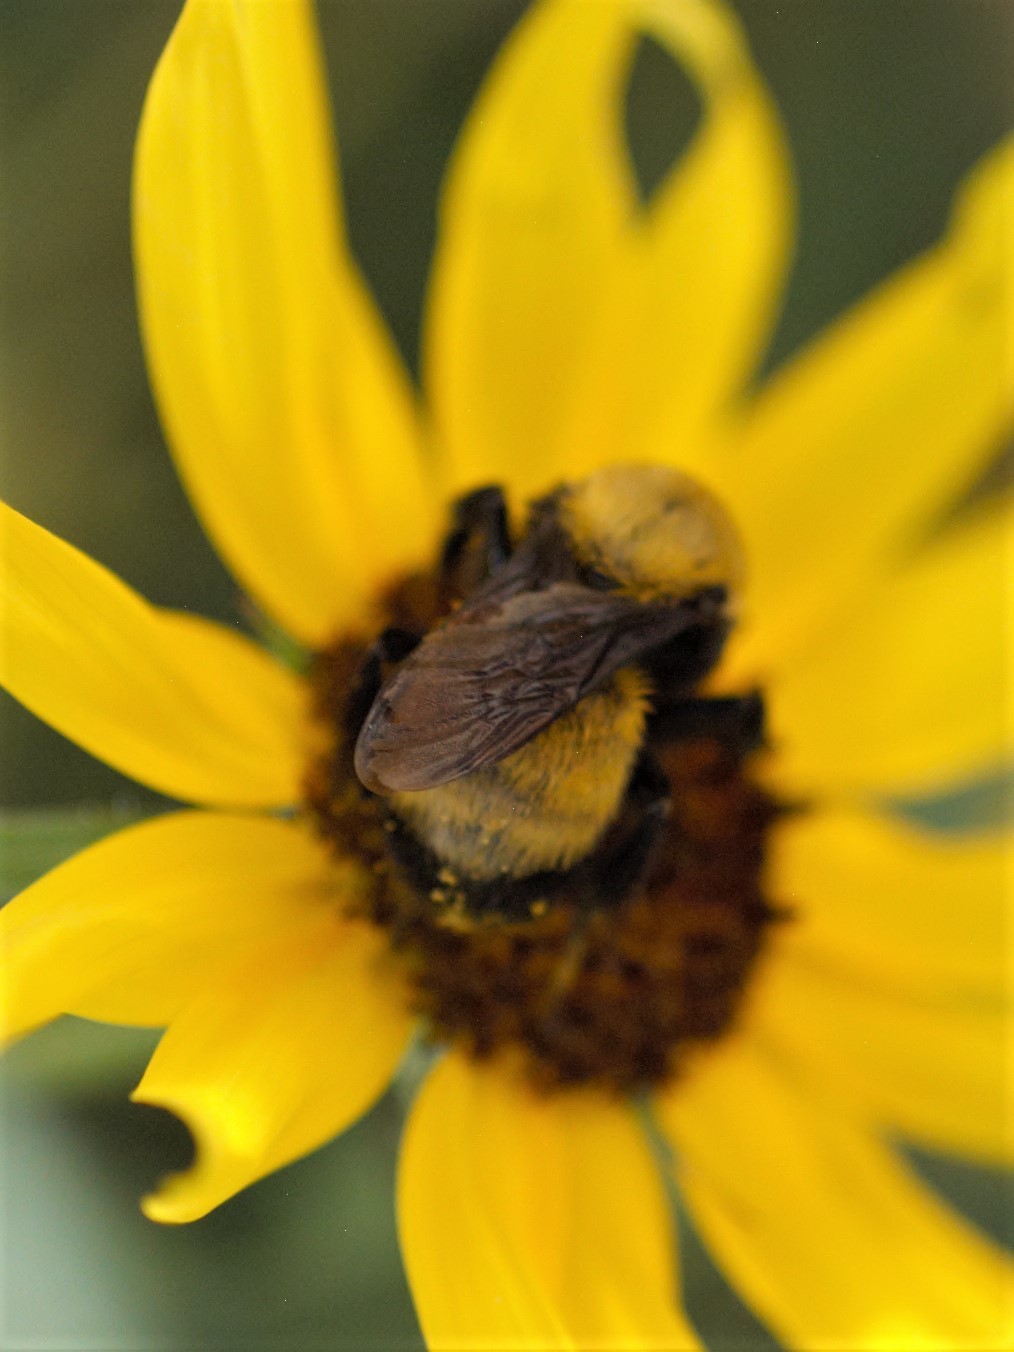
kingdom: Animalia
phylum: Arthropoda
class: Insecta
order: Hymenoptera
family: Apidae
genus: Bombus
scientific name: Bombus morrisoni
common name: Morrison bumble bee
